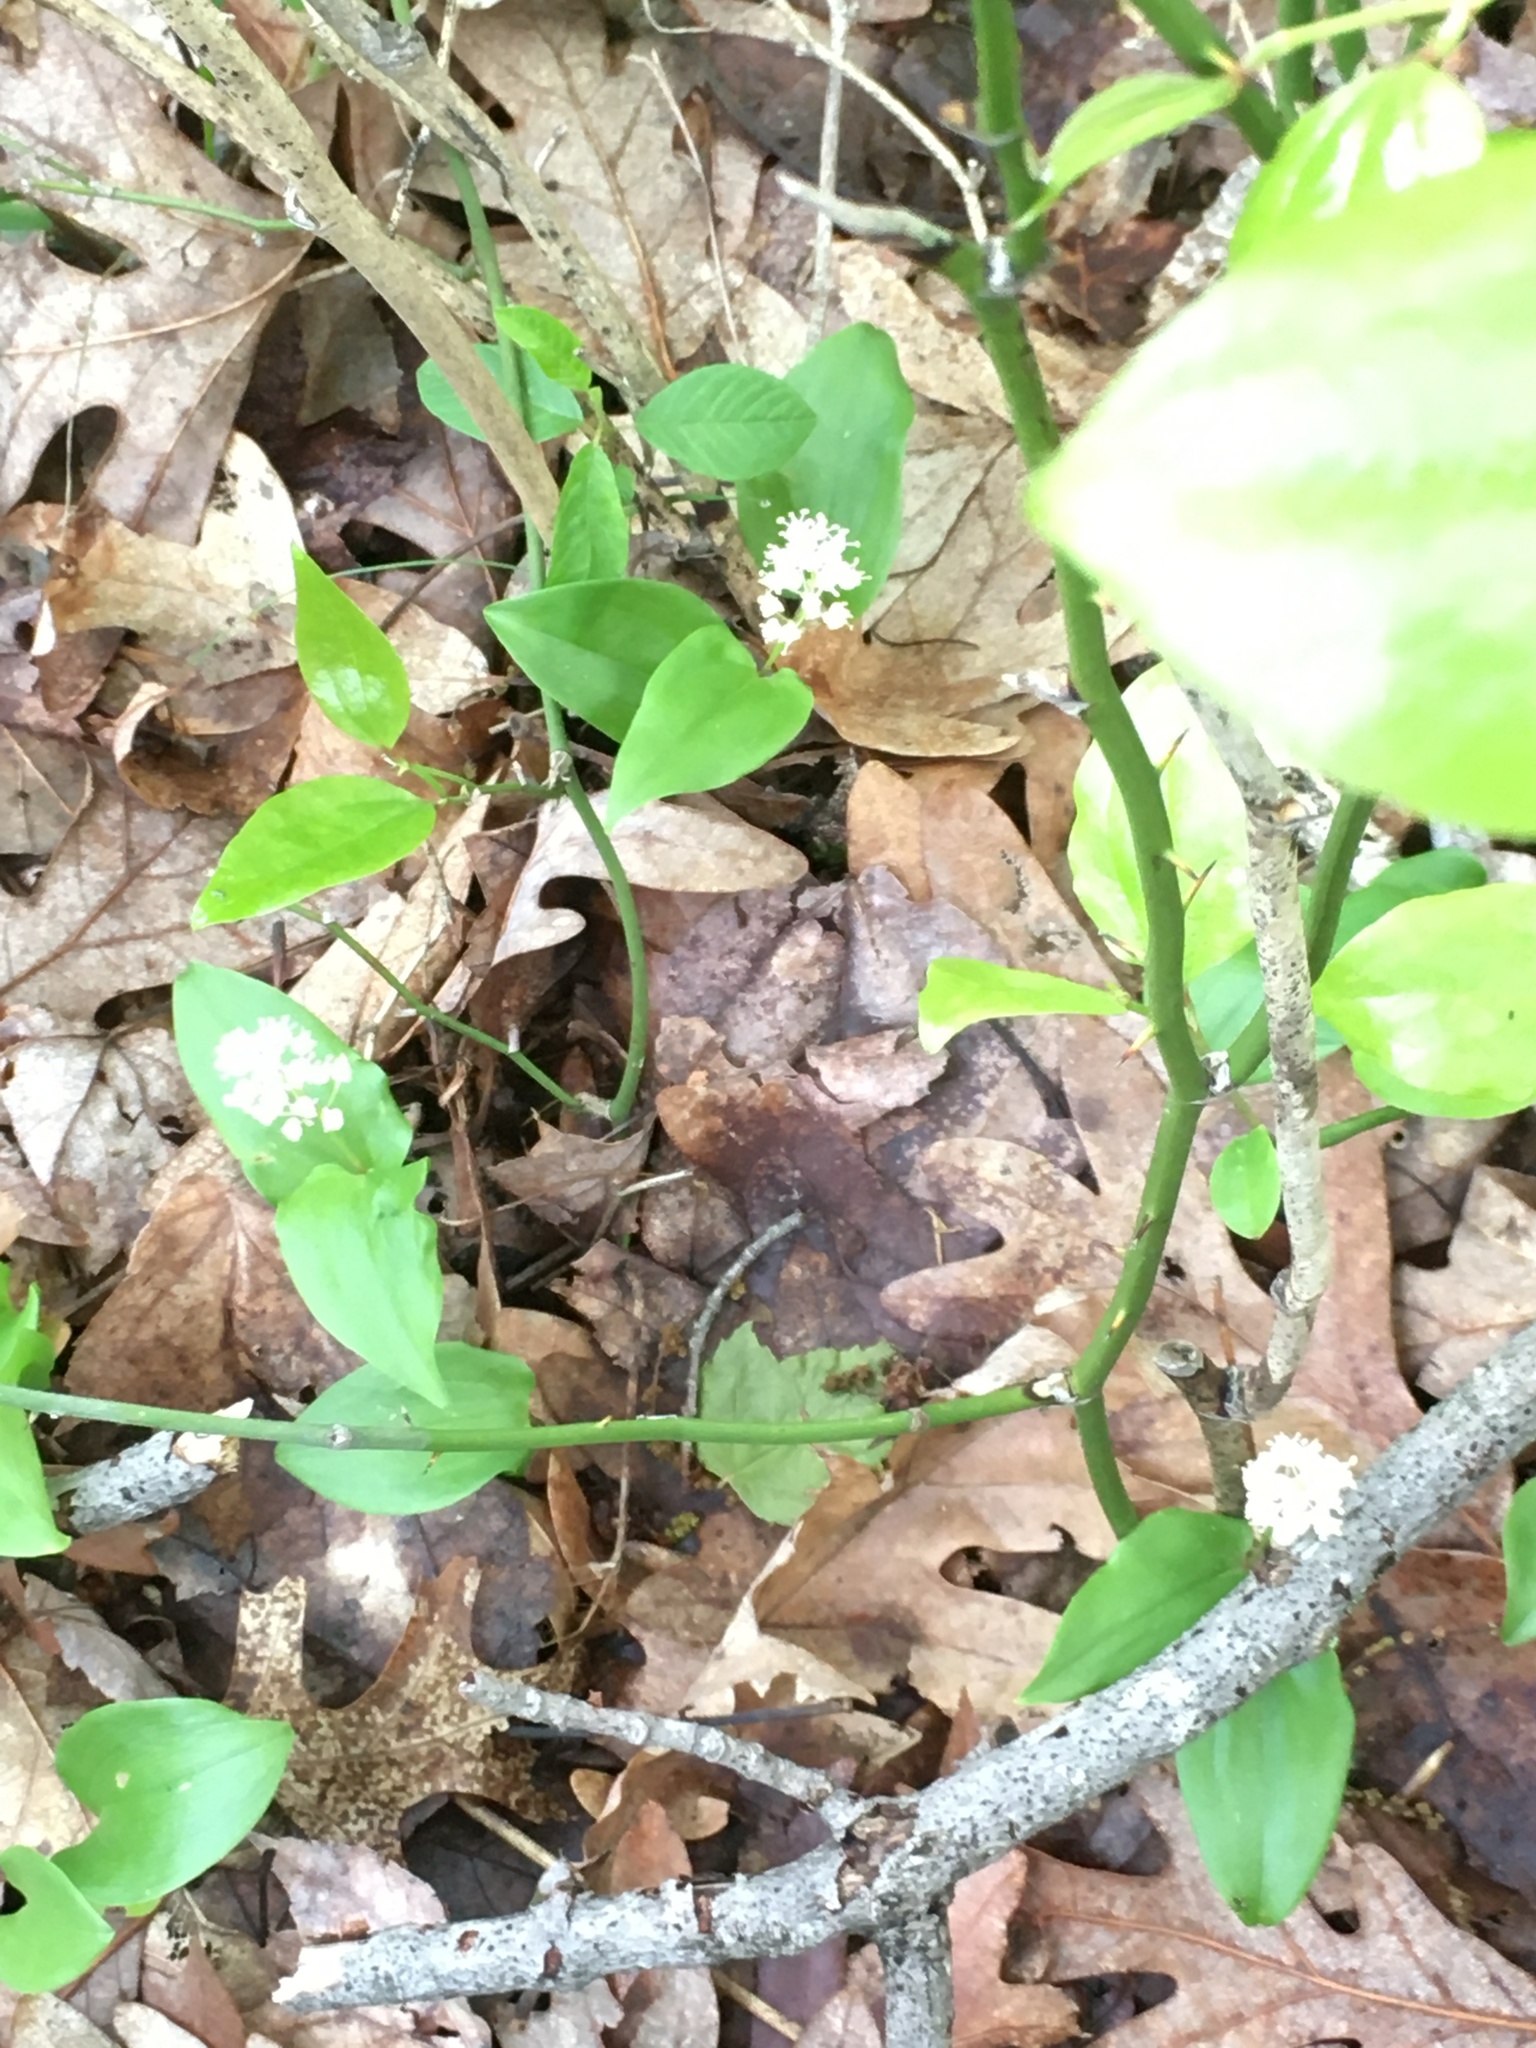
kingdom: Plantae
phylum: Tracheophyta
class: Liliopsida
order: Asparagales
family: Asparagaceae
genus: Maianthemum
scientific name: Maianthemum canadense
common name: False lily-of-the-valley
